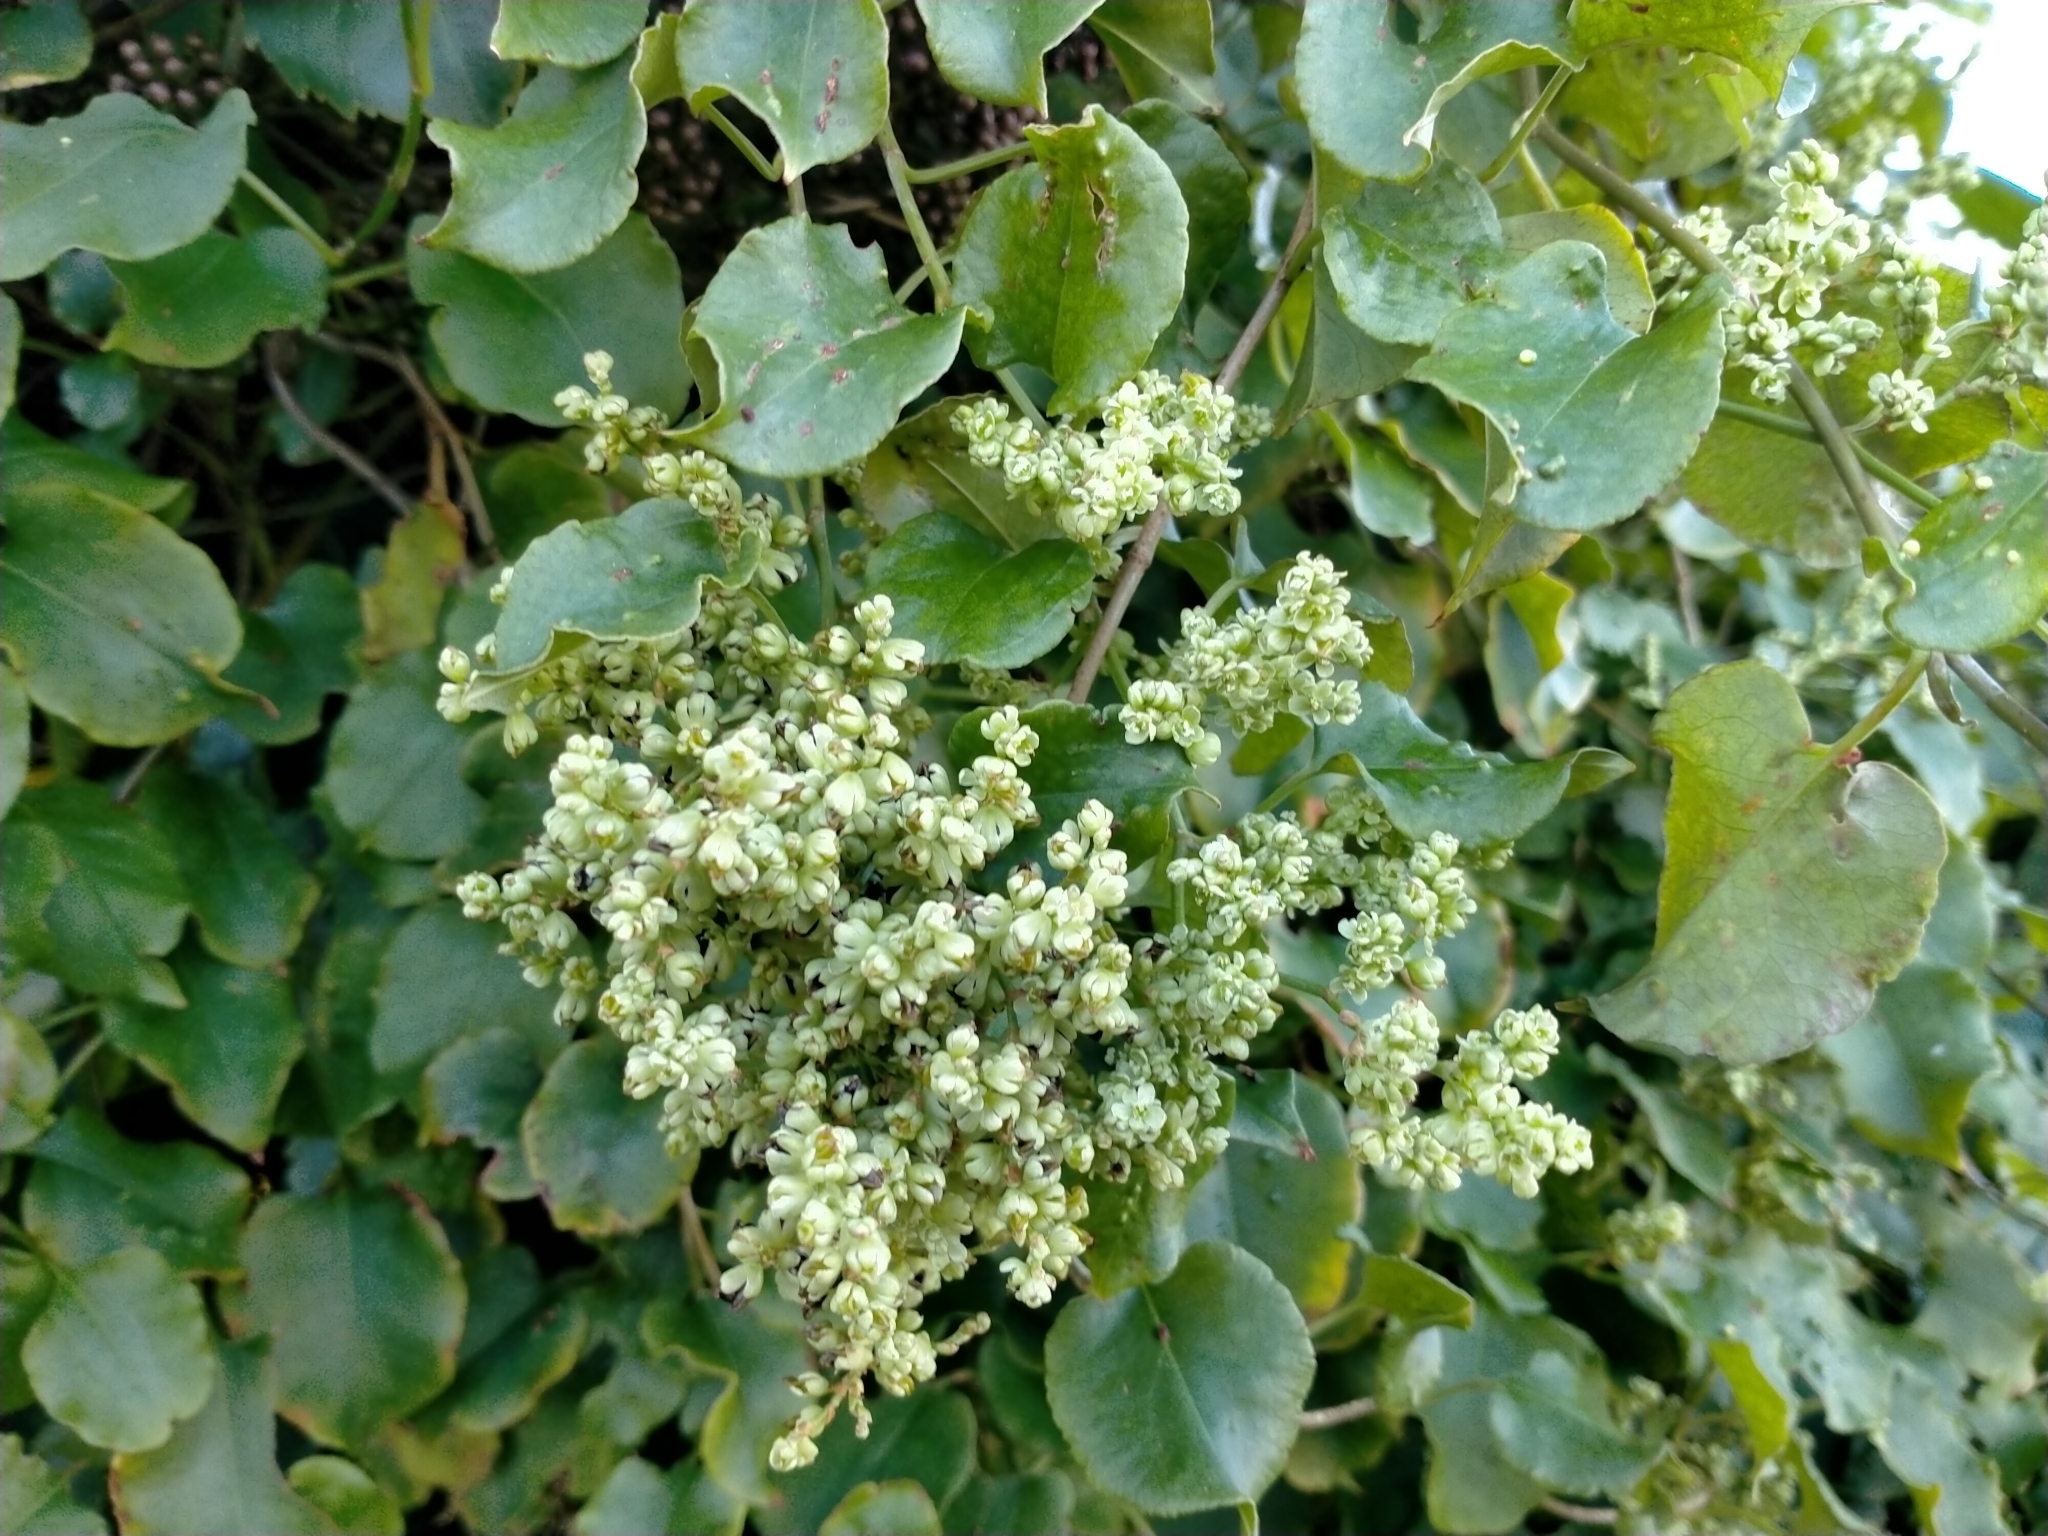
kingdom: Plantae
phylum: Tracheophyta
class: Magnoliopsida
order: Caryophyllales
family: Polygonaceae
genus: Muehlenbeckia
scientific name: Muehlenbeckia australis
